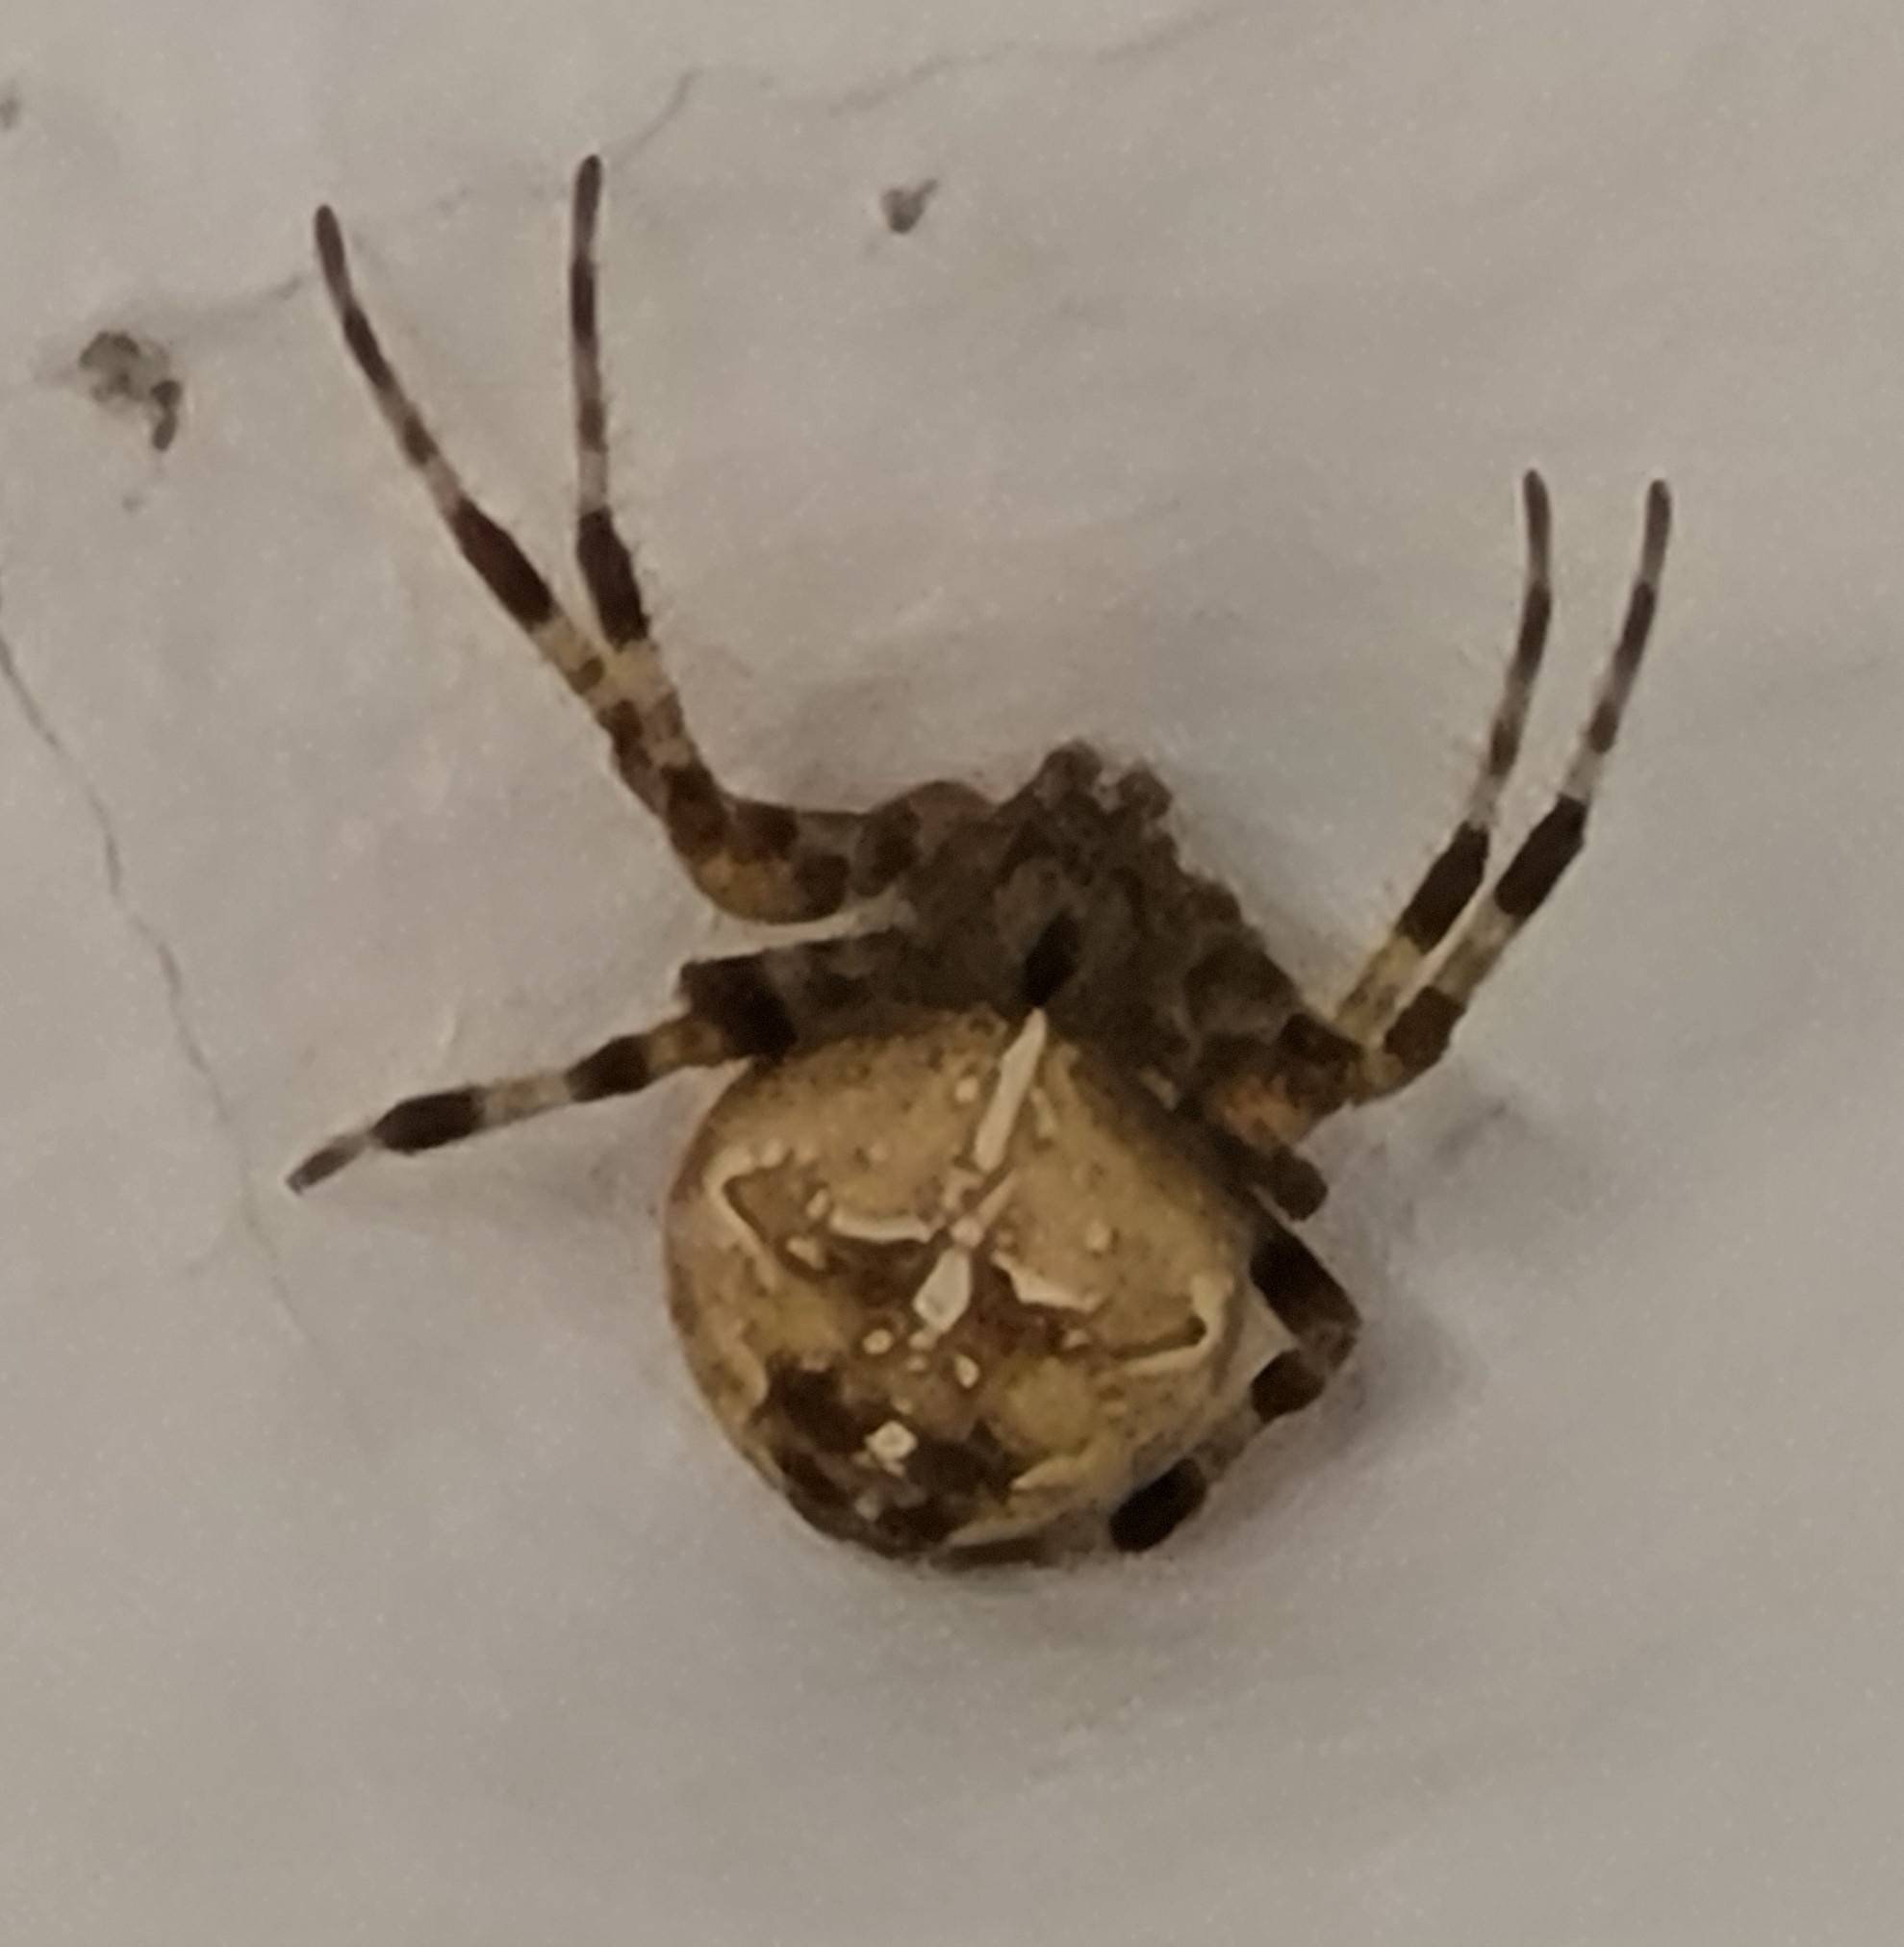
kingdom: Animalia
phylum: Arthropoda
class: Arachnida
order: Araneae
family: Araneidae
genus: Araneus
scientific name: Araneus diadematus
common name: Cross orbweaver
